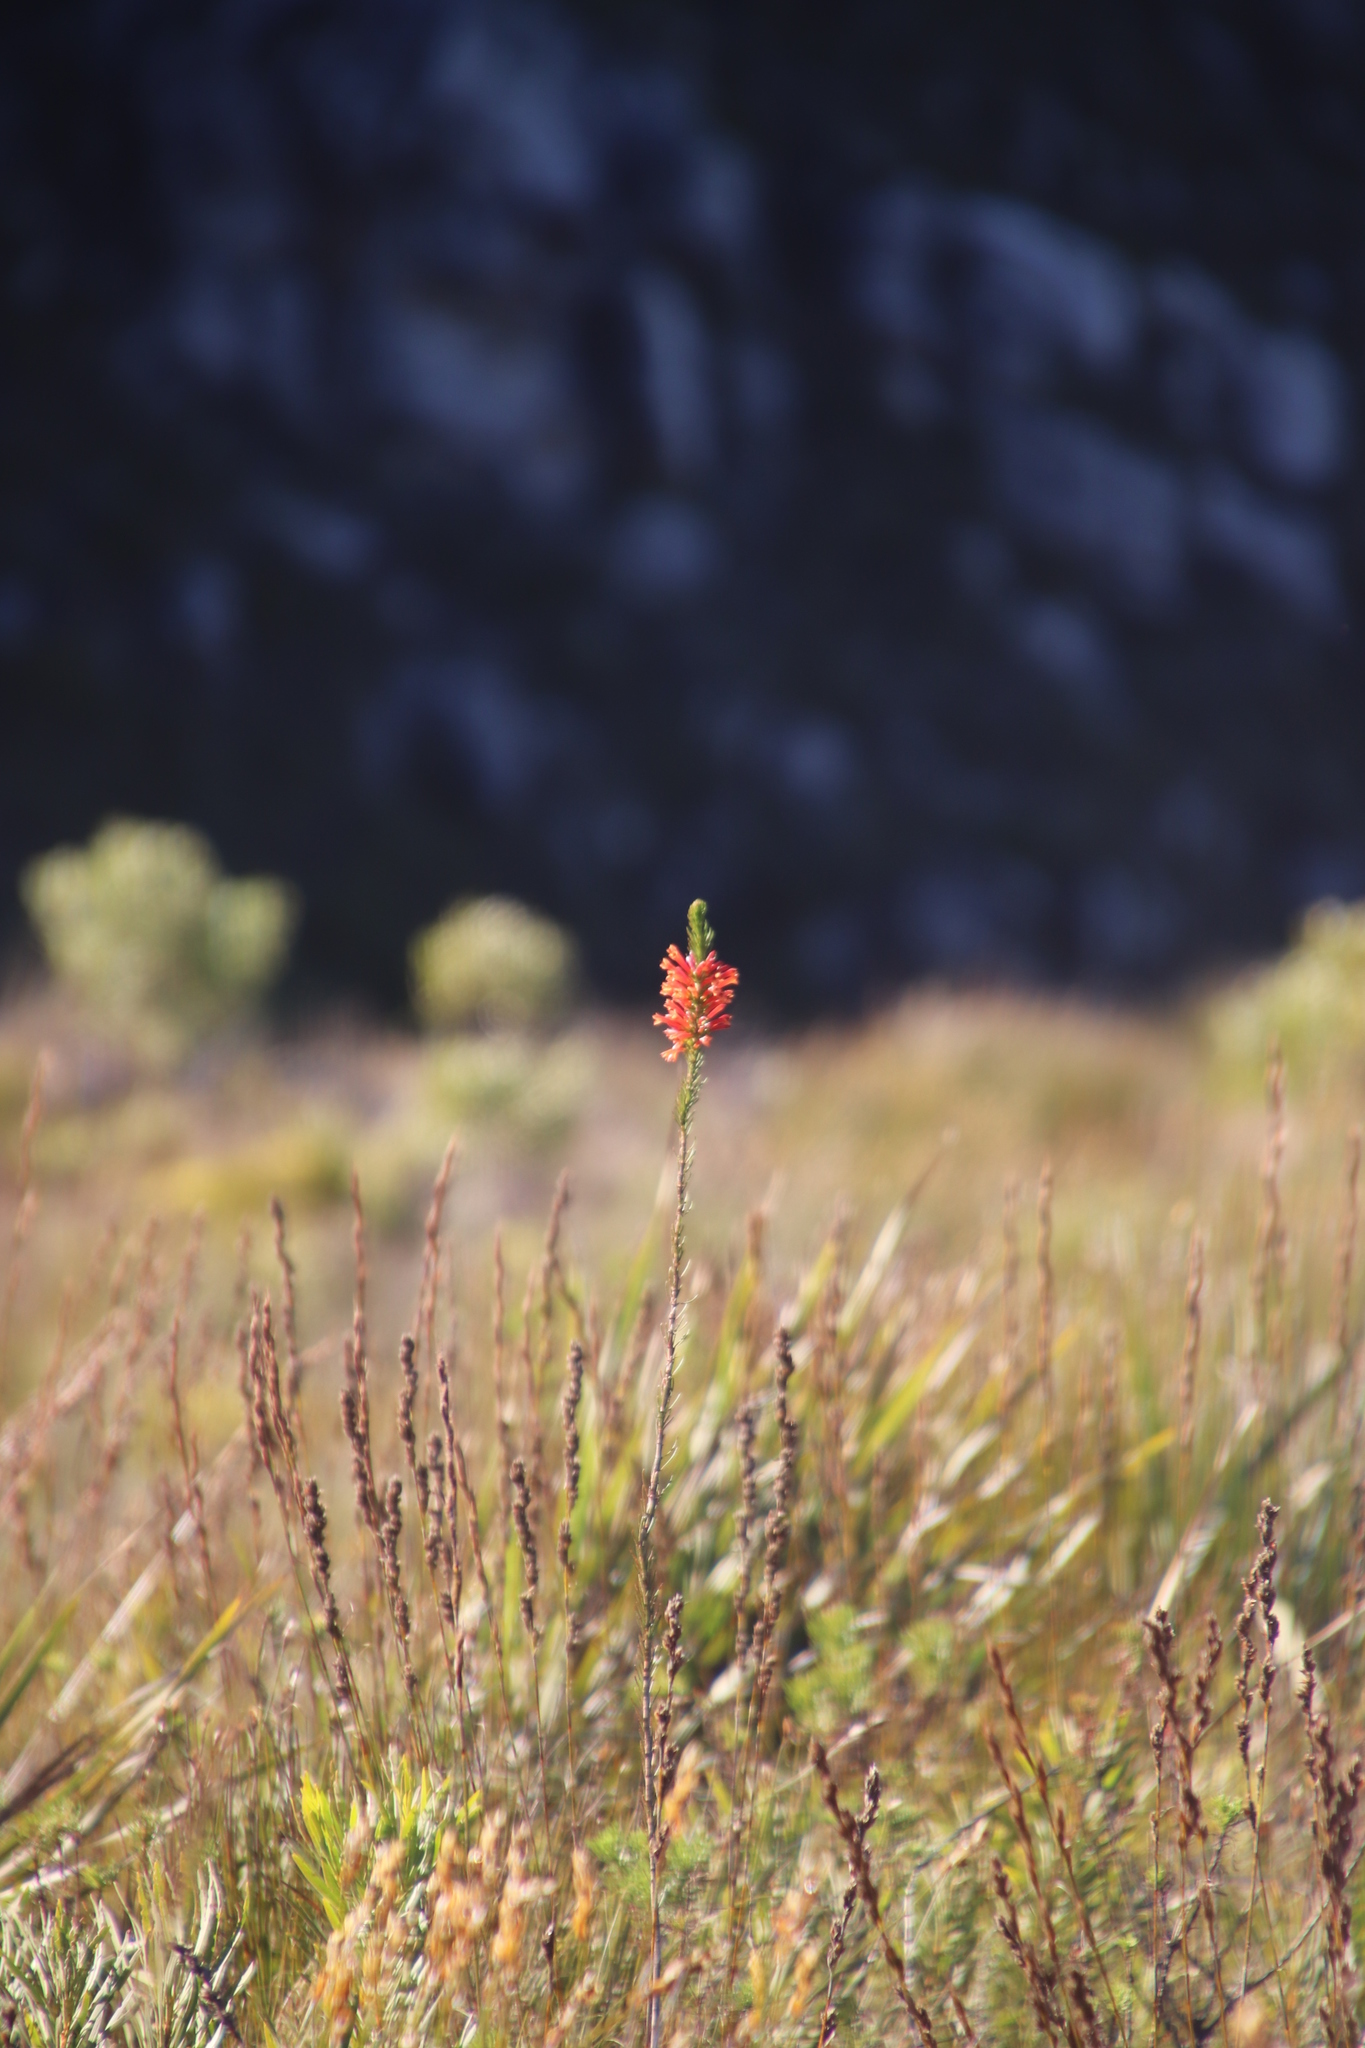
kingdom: Plantae
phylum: Tracheophyta
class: Magnoliopsida
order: Ericales
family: Ericaceae
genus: Erica
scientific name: Erica grandiflora
